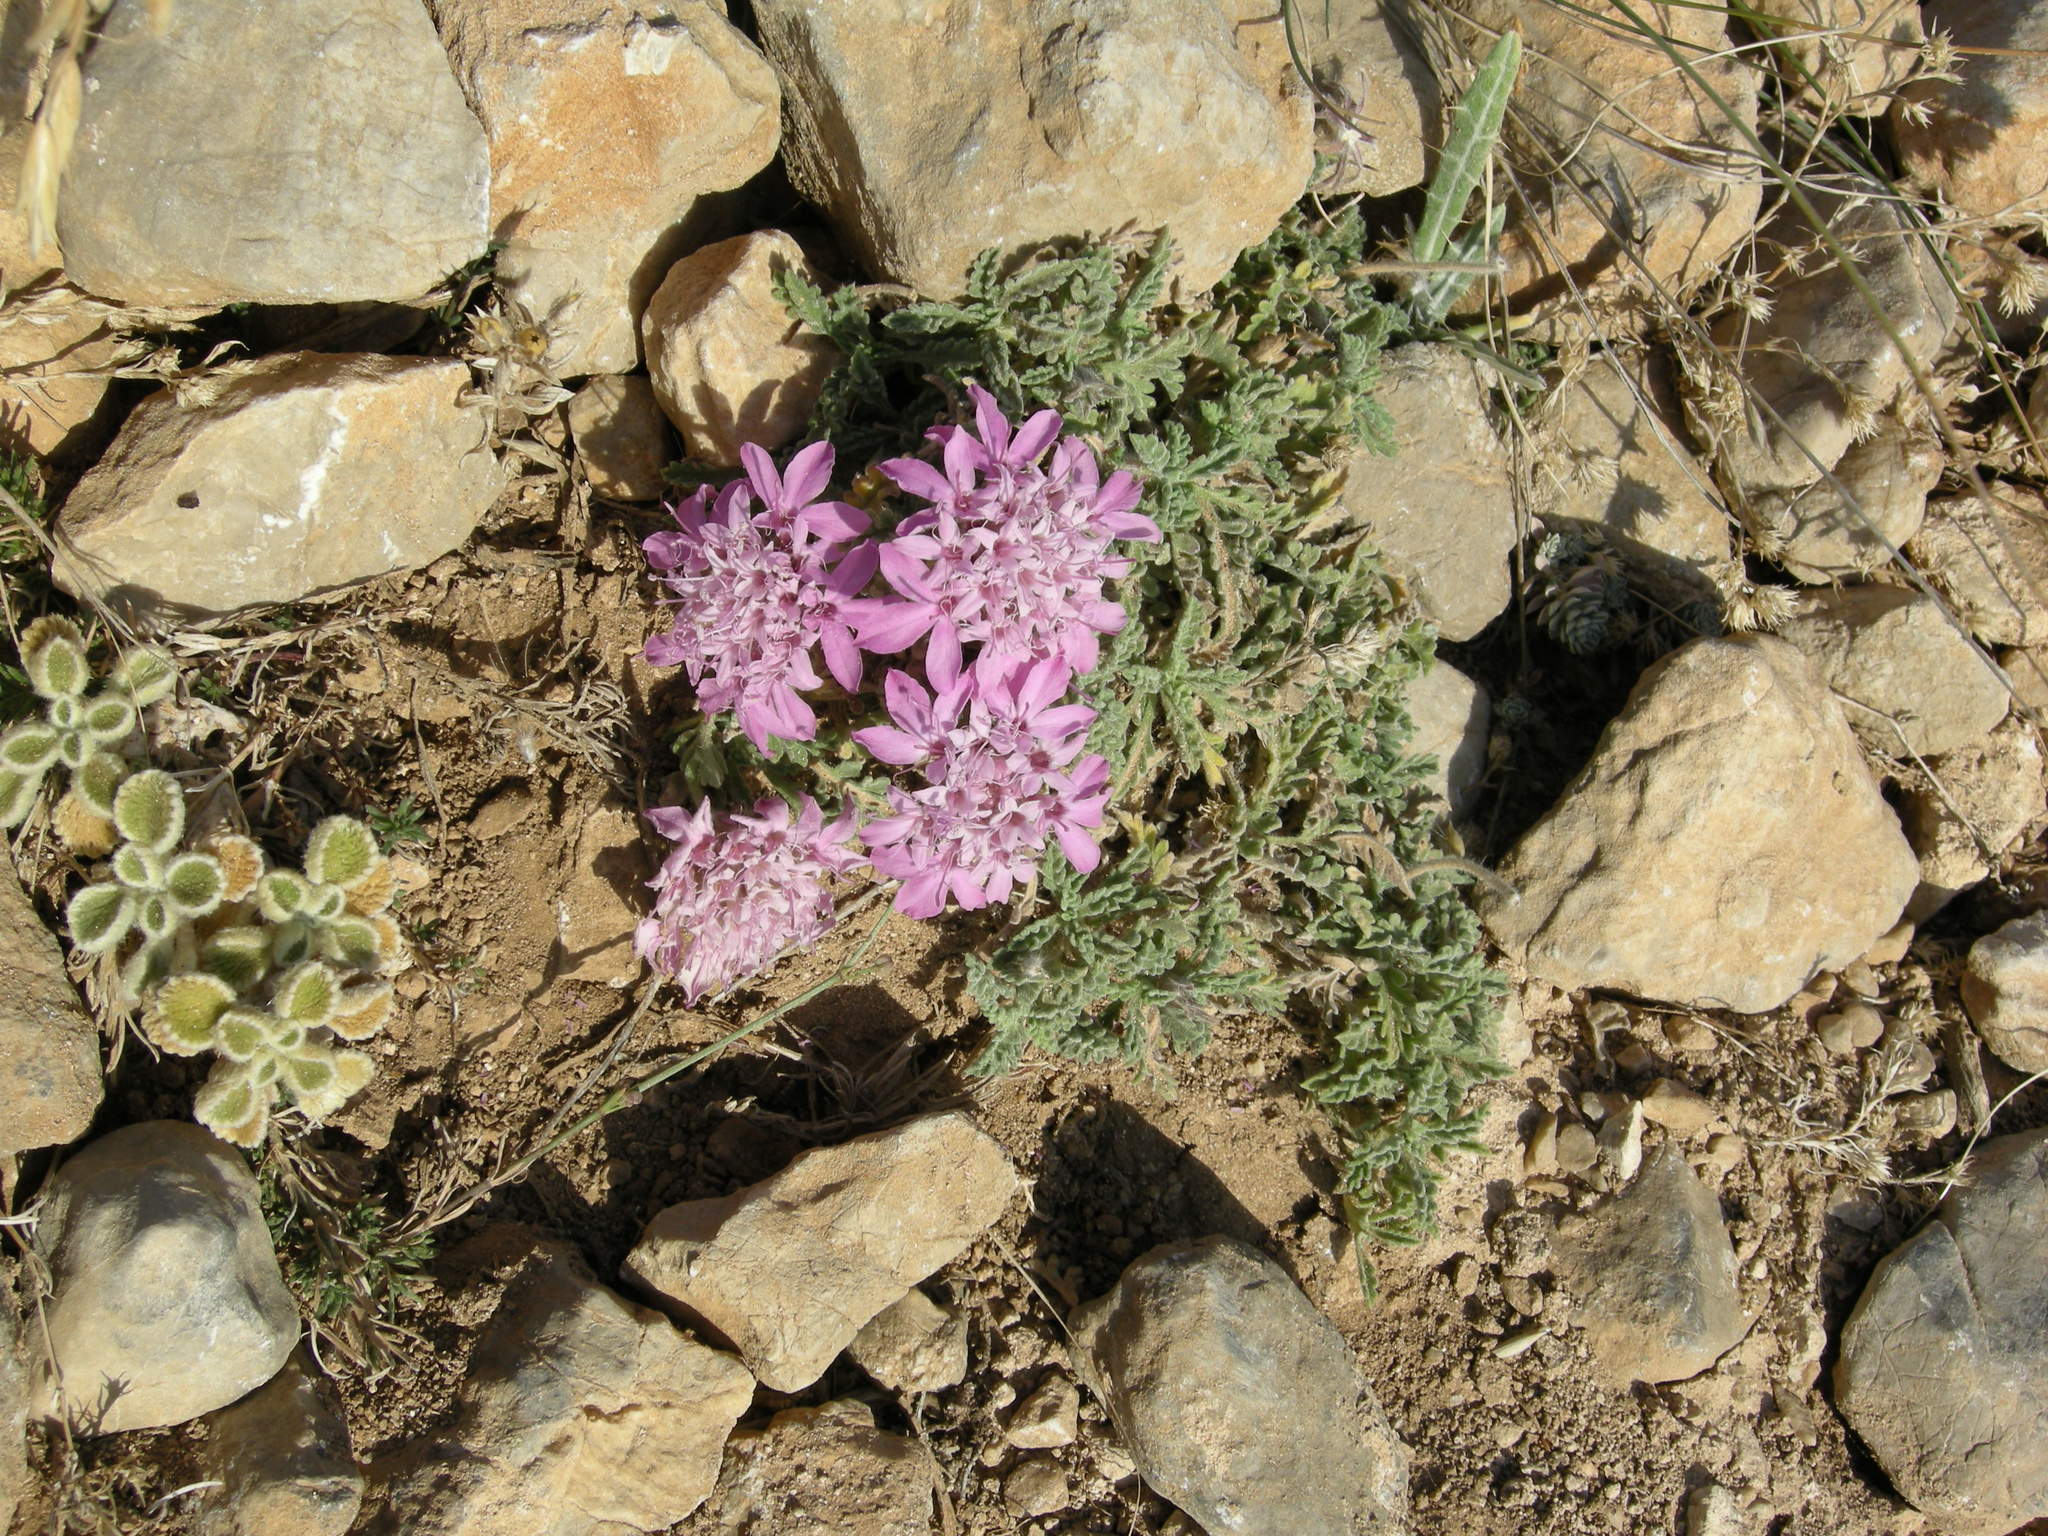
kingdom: Plantae
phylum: Tracheophyta
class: Magnoliopsida
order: Dipsacales
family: Caprifoliaceae
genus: Pterocephalus
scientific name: Pterocephalus pinardii
